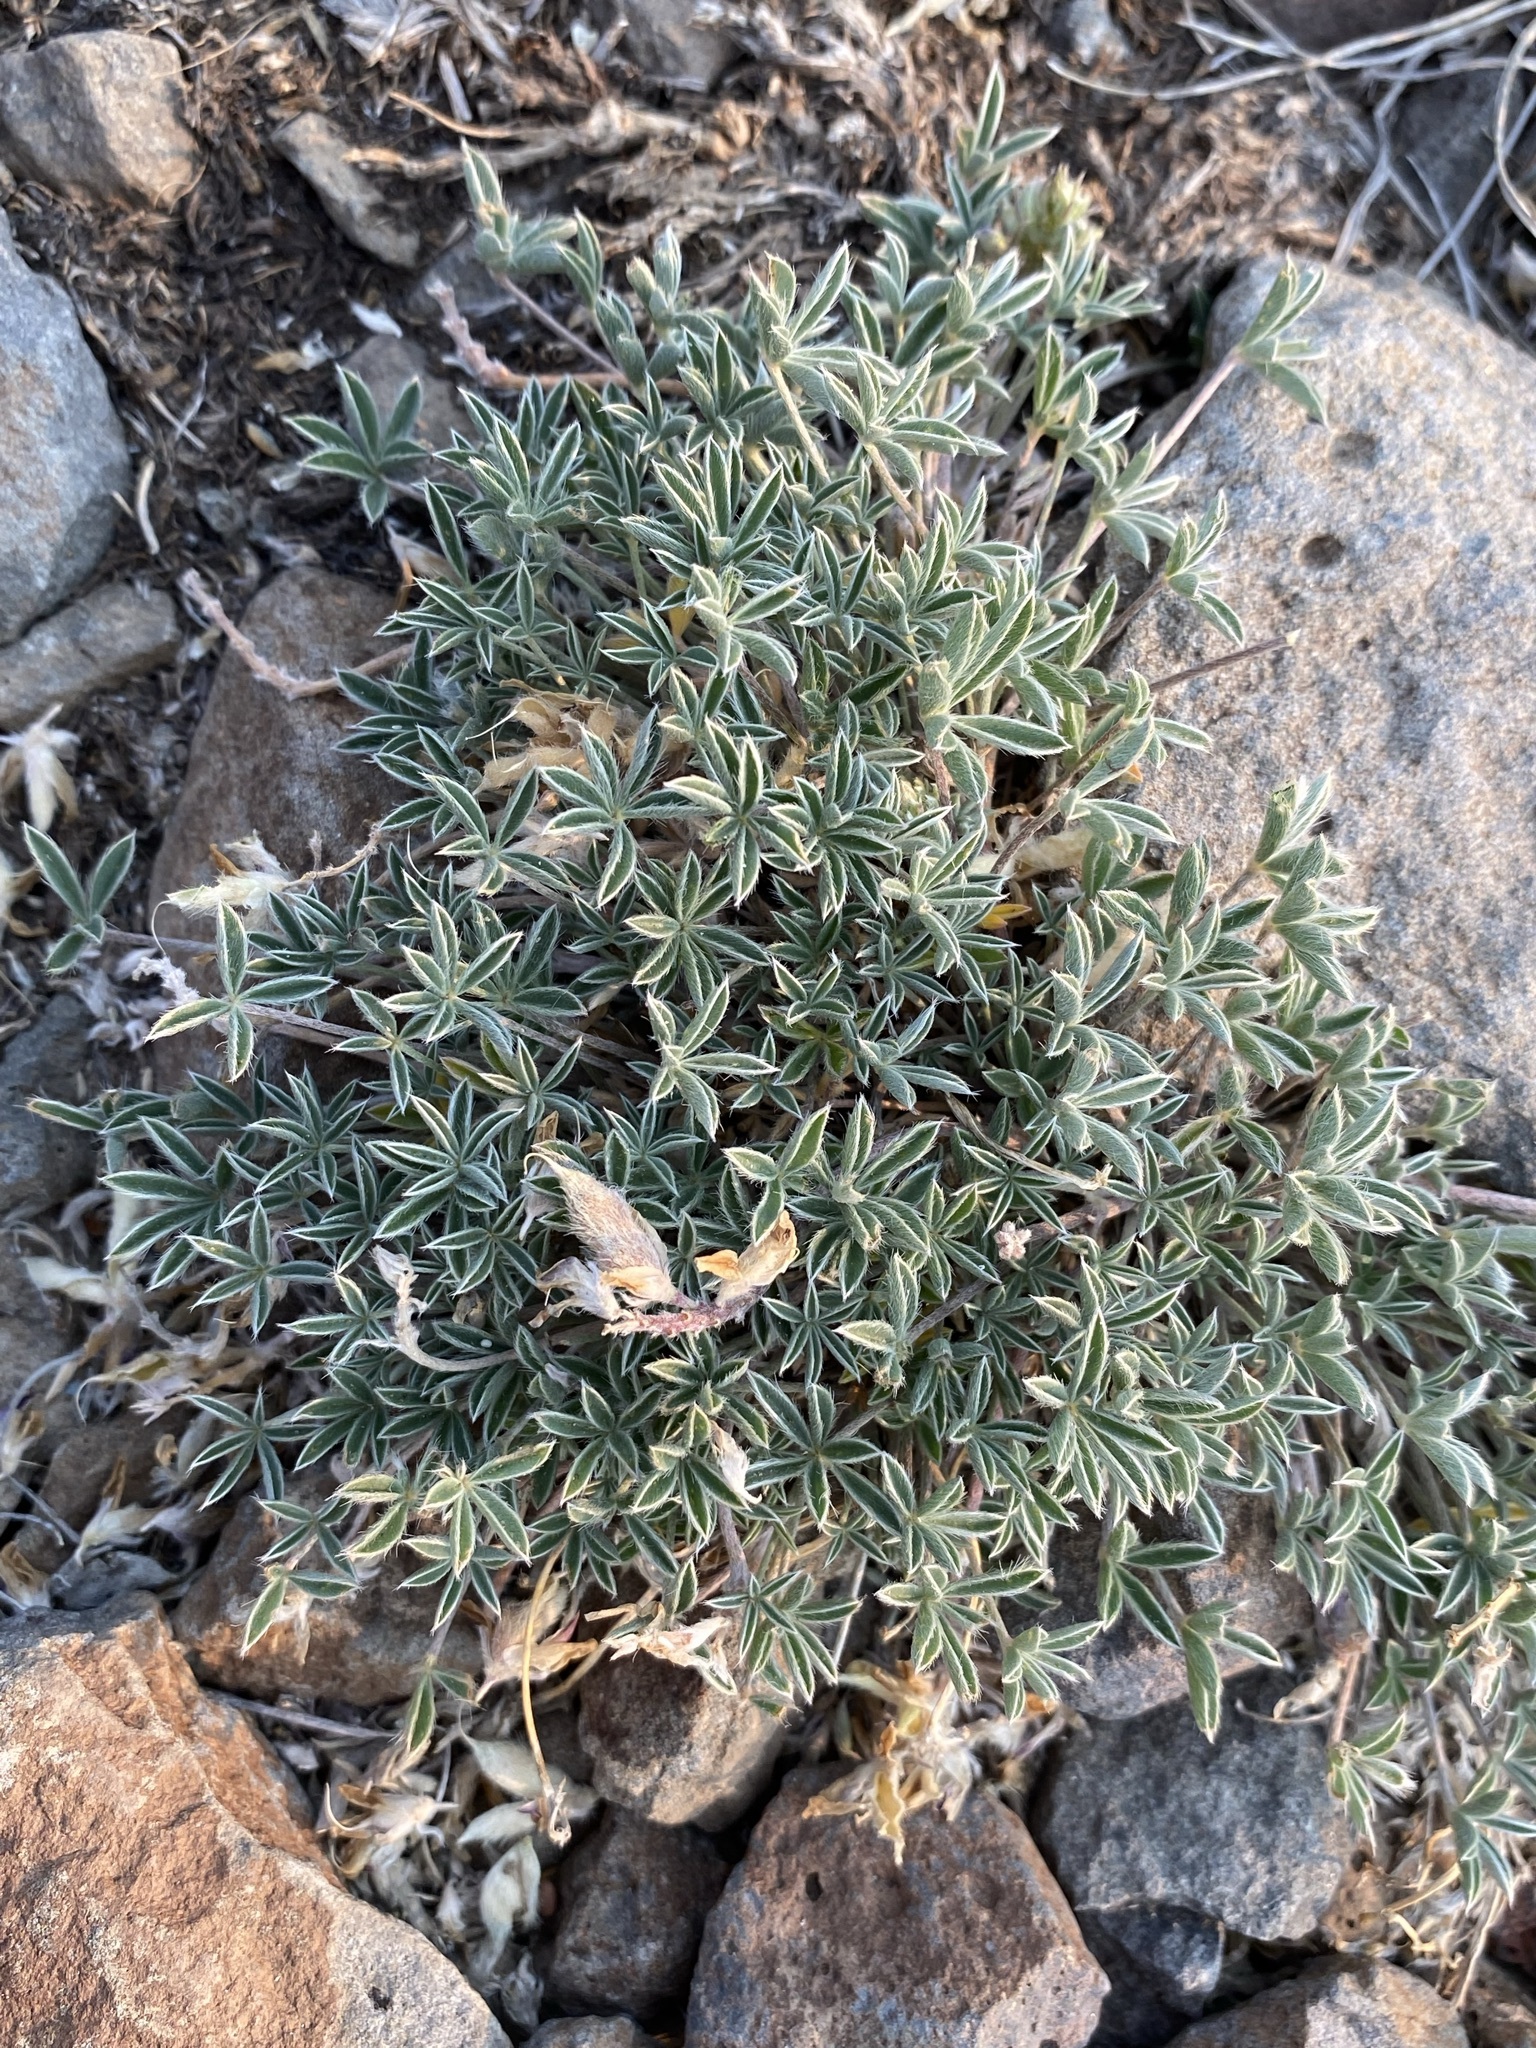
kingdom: Plantae
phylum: Tracheophyta
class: Magnoliopsida
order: Fabales
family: Fabaceae
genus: Lupinus
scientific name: Lupinus lepidus
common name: Prairie lupine
